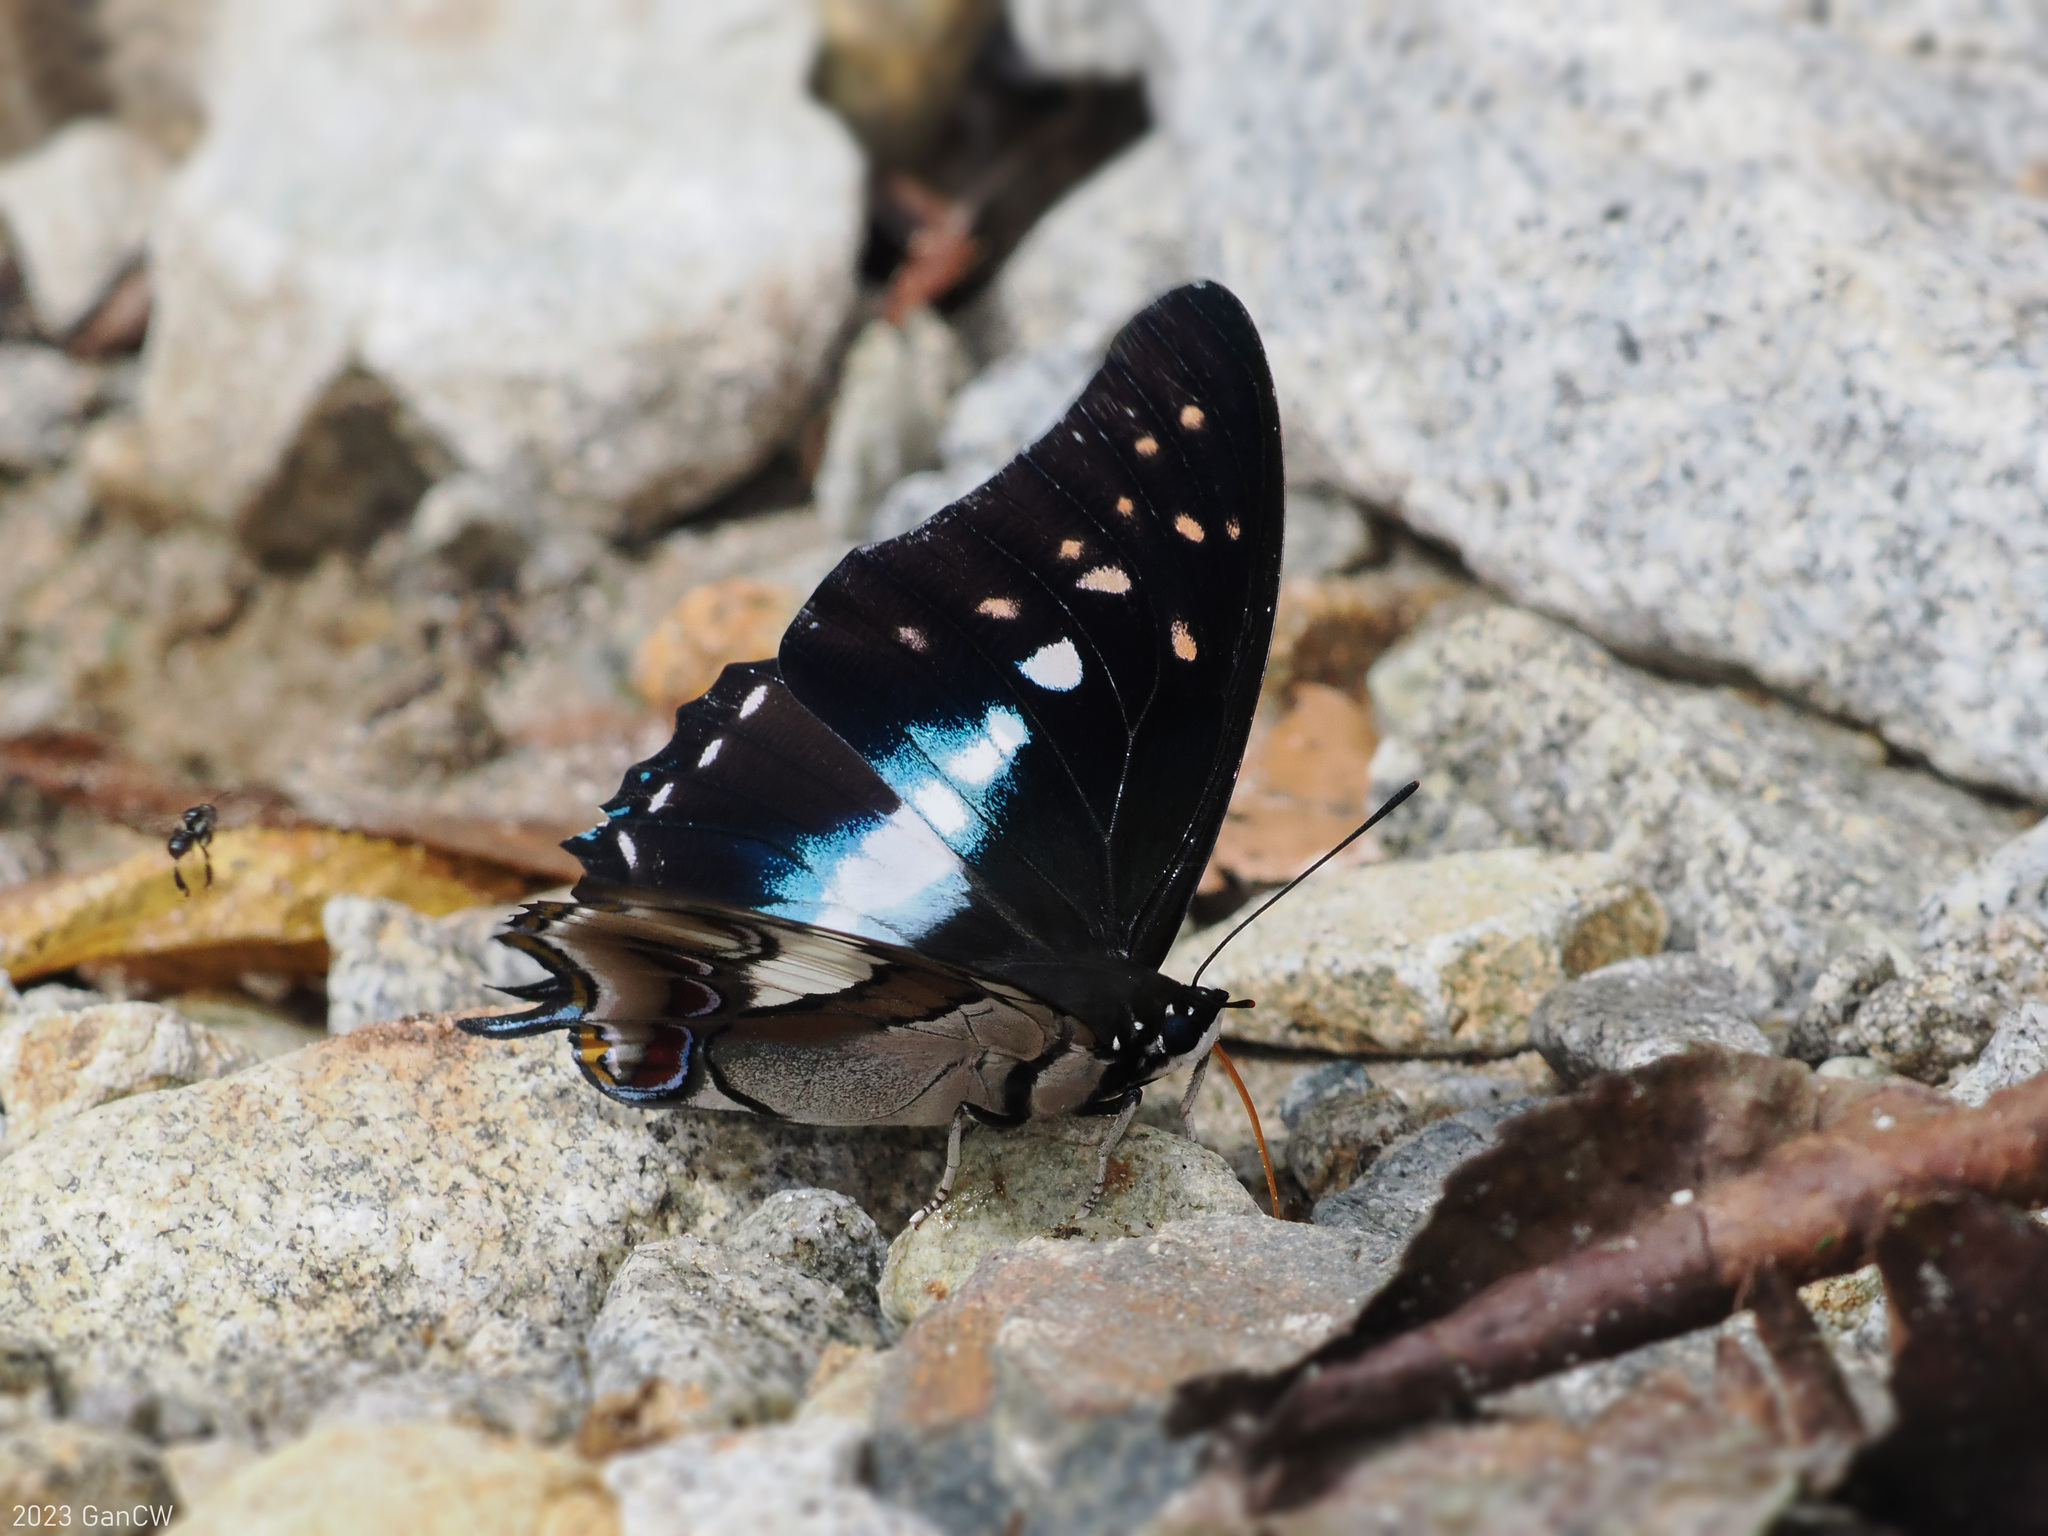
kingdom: Animalia
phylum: Arthropoda
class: Insecta
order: Lepidoptera
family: Nymphalidae
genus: Polyura
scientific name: Polyura cognatus
